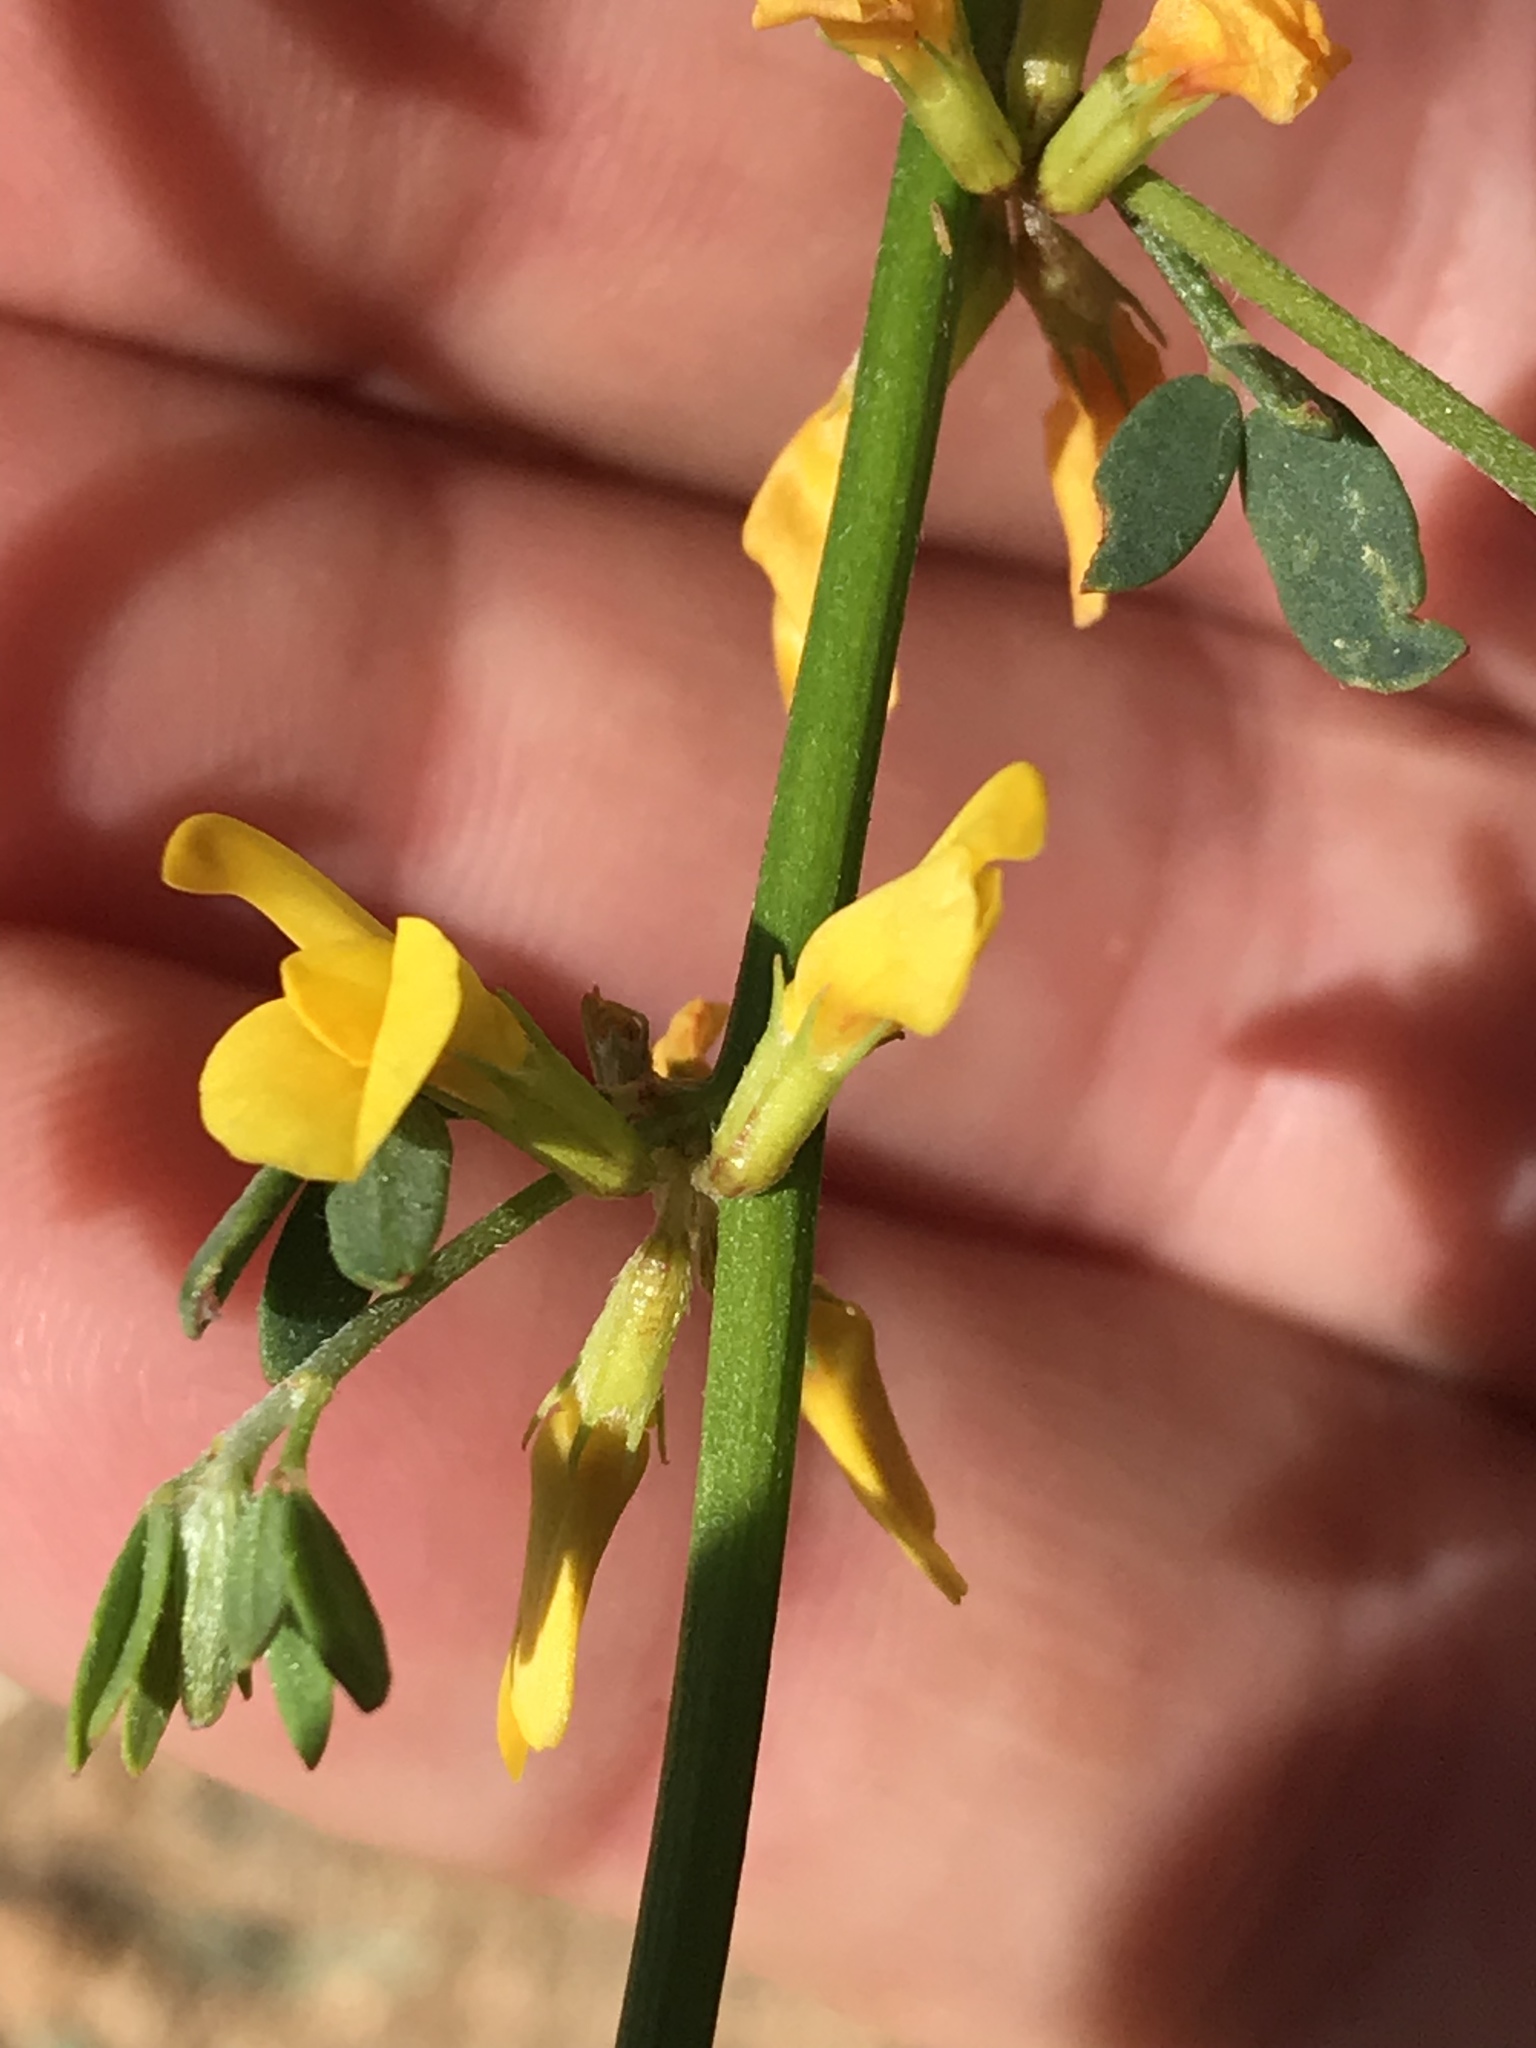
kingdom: Plantae
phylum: Tracheophyta
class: Magnoliopsida
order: Fabales
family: Fabaceae
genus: Acmispon
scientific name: Acmispon glaber
